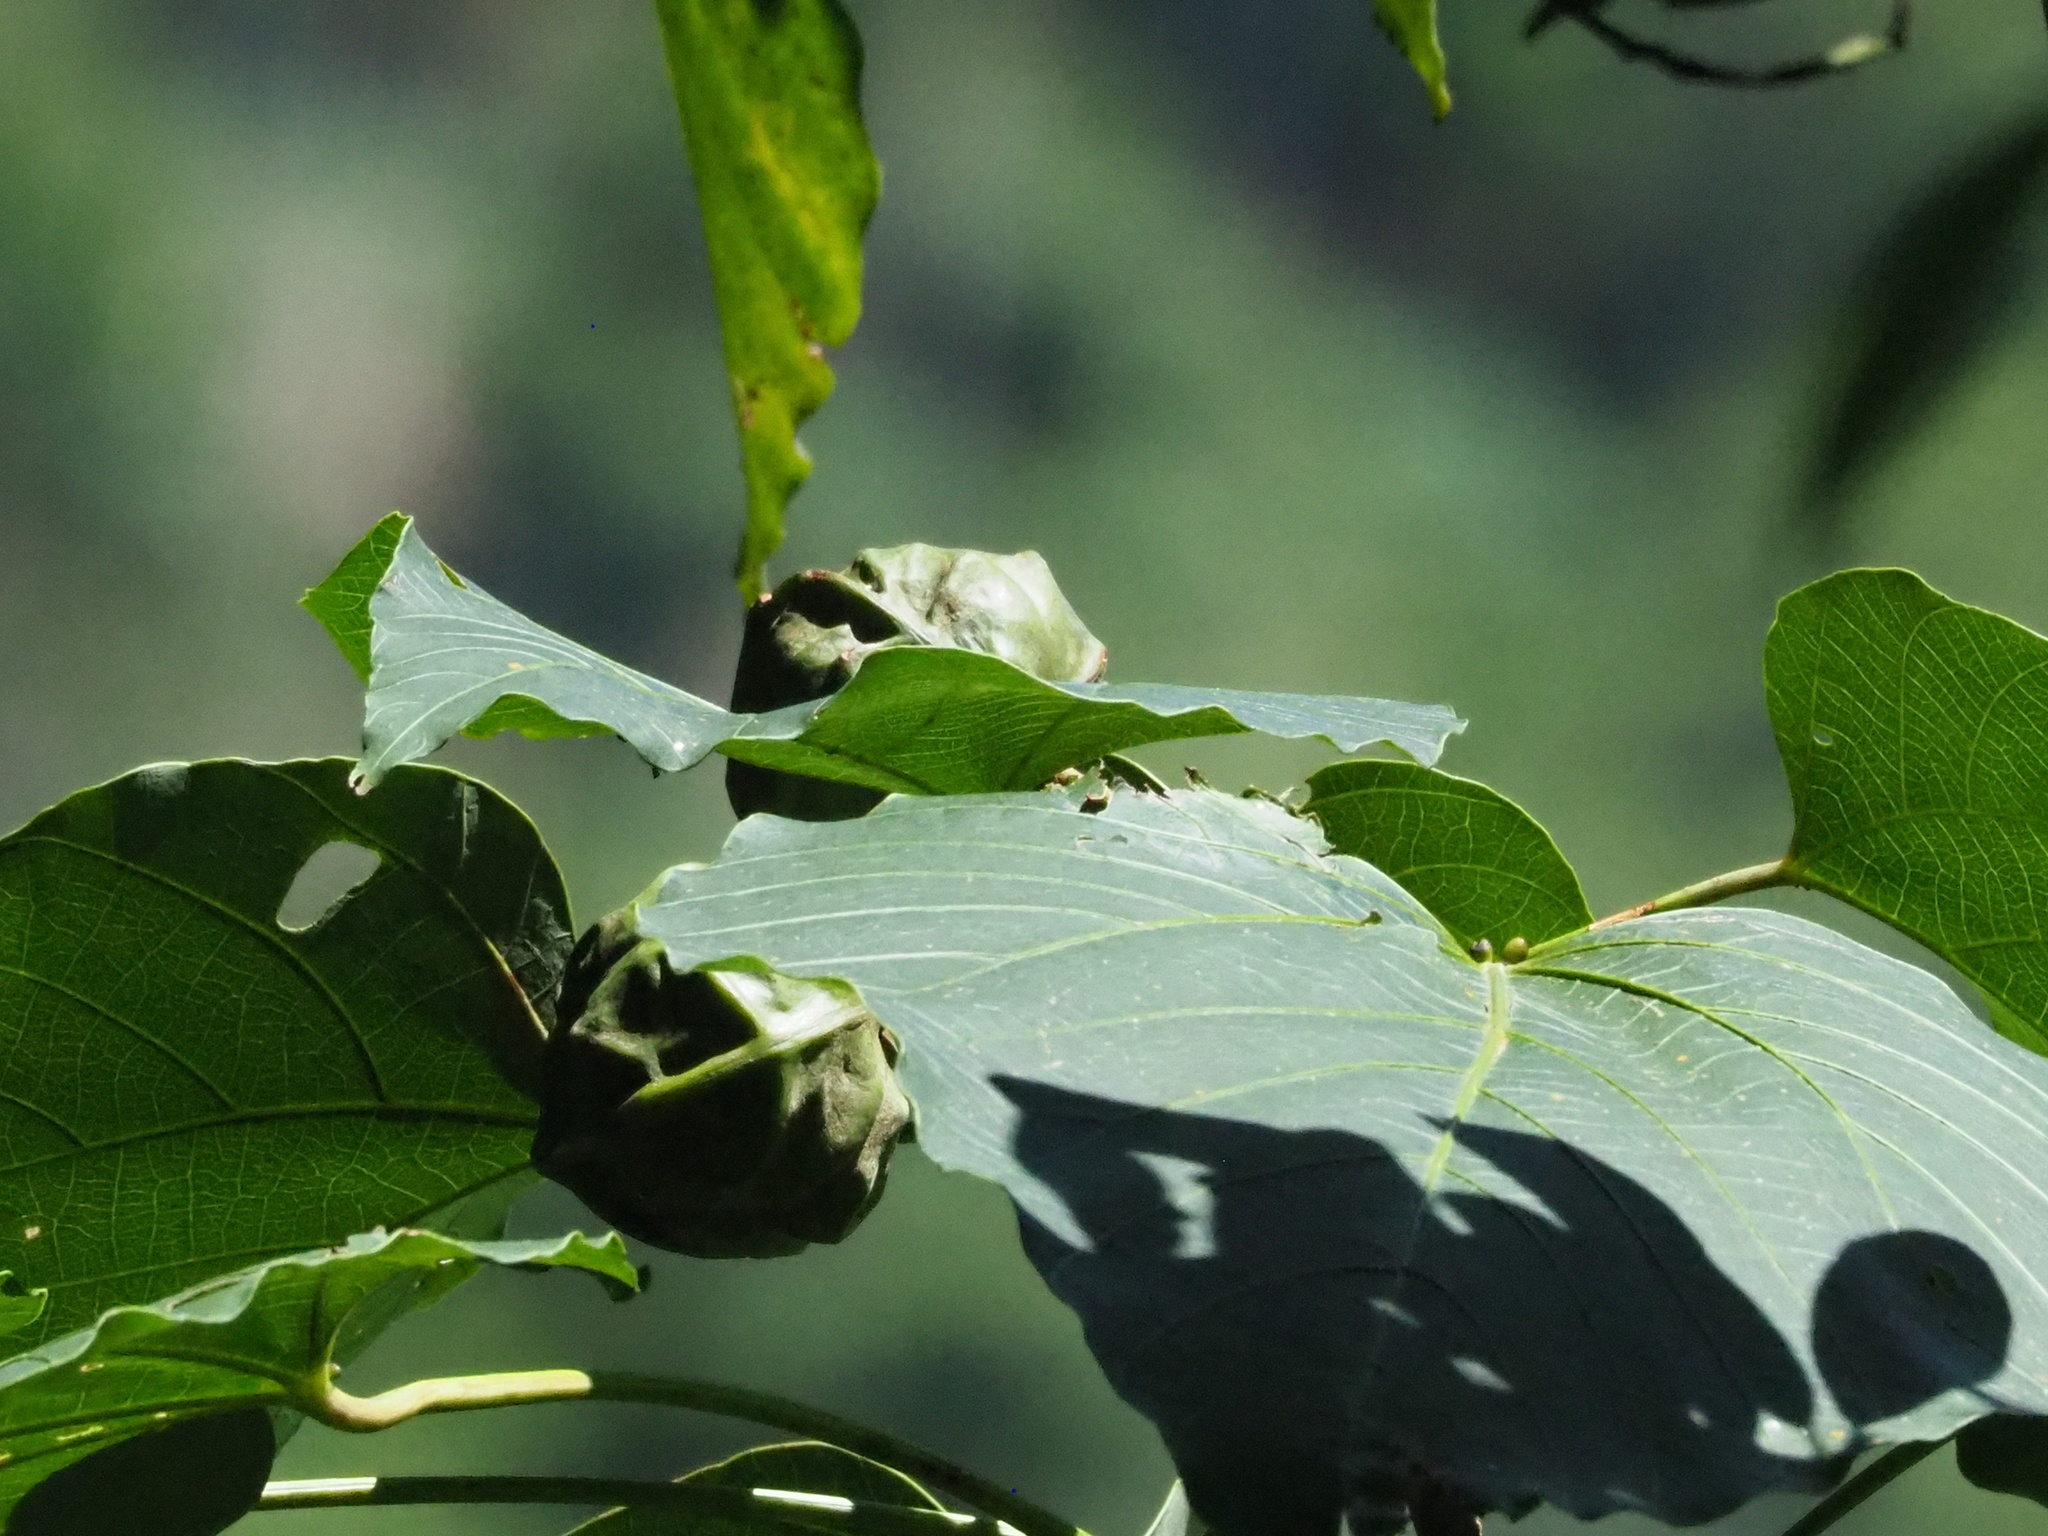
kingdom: Plantae
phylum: Tracheophyta
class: Magnoliopsida
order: Malpighiales
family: Euphorbiaceae
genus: Vernicia
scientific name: Vernicia montana
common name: Mu oil tree
